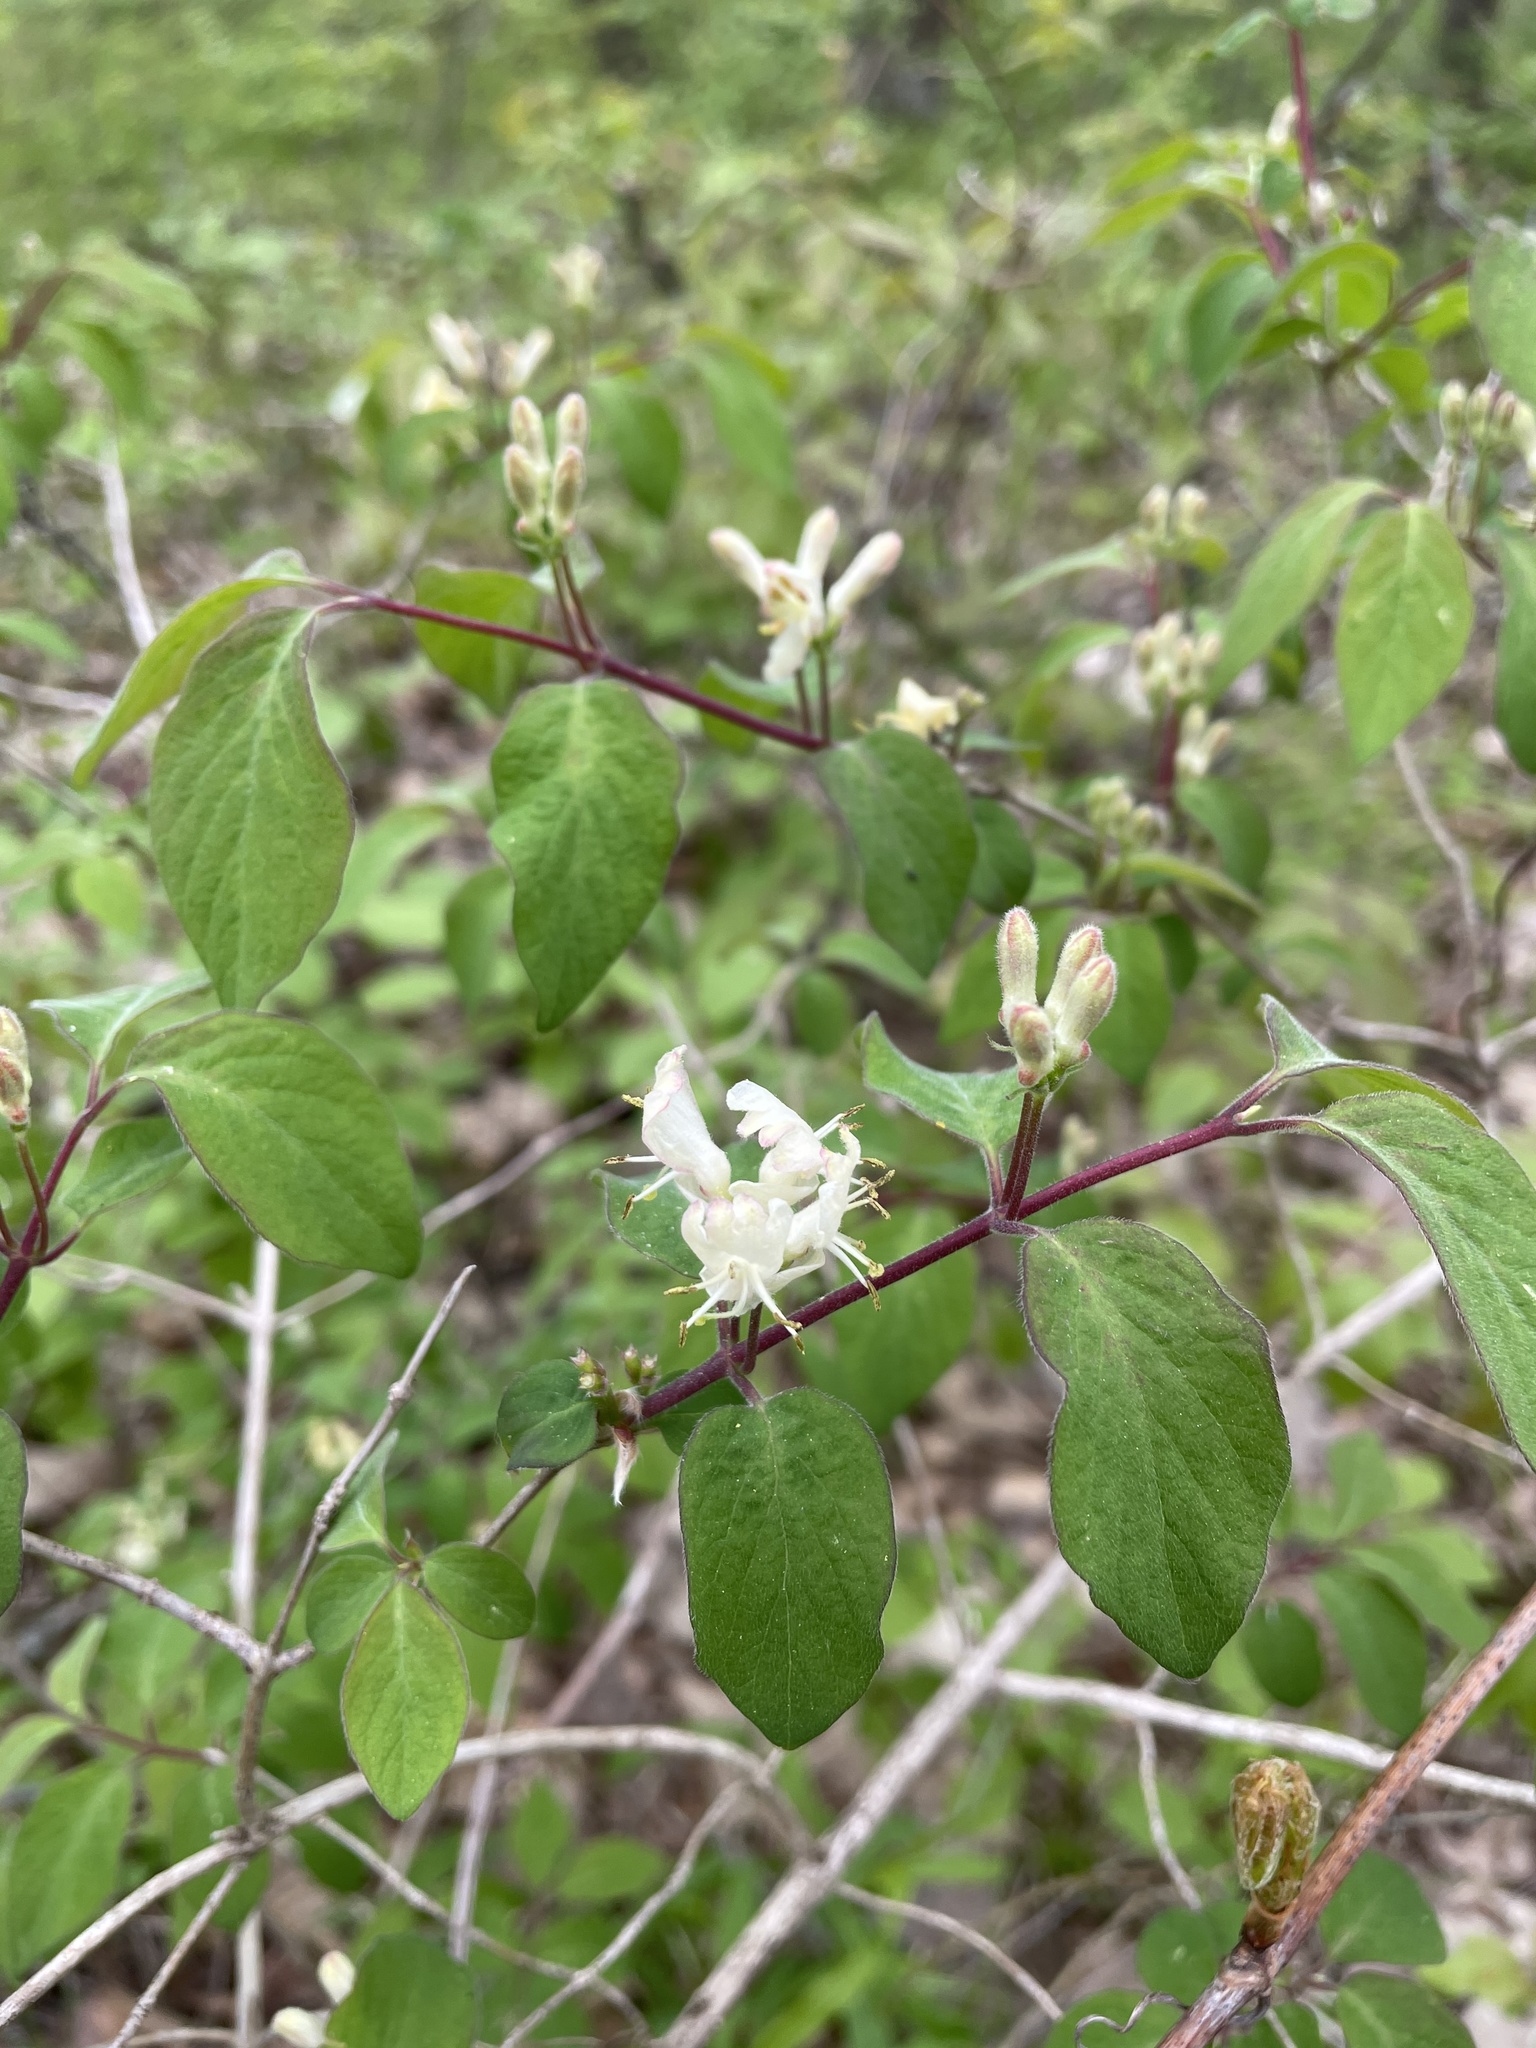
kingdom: Plantae
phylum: Tracheophyta
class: Magnoliopsida
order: Dipsacales
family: Caprifoliaceae
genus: Lonicera
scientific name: Lonicera xylosteum
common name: Fly honeysuckle
